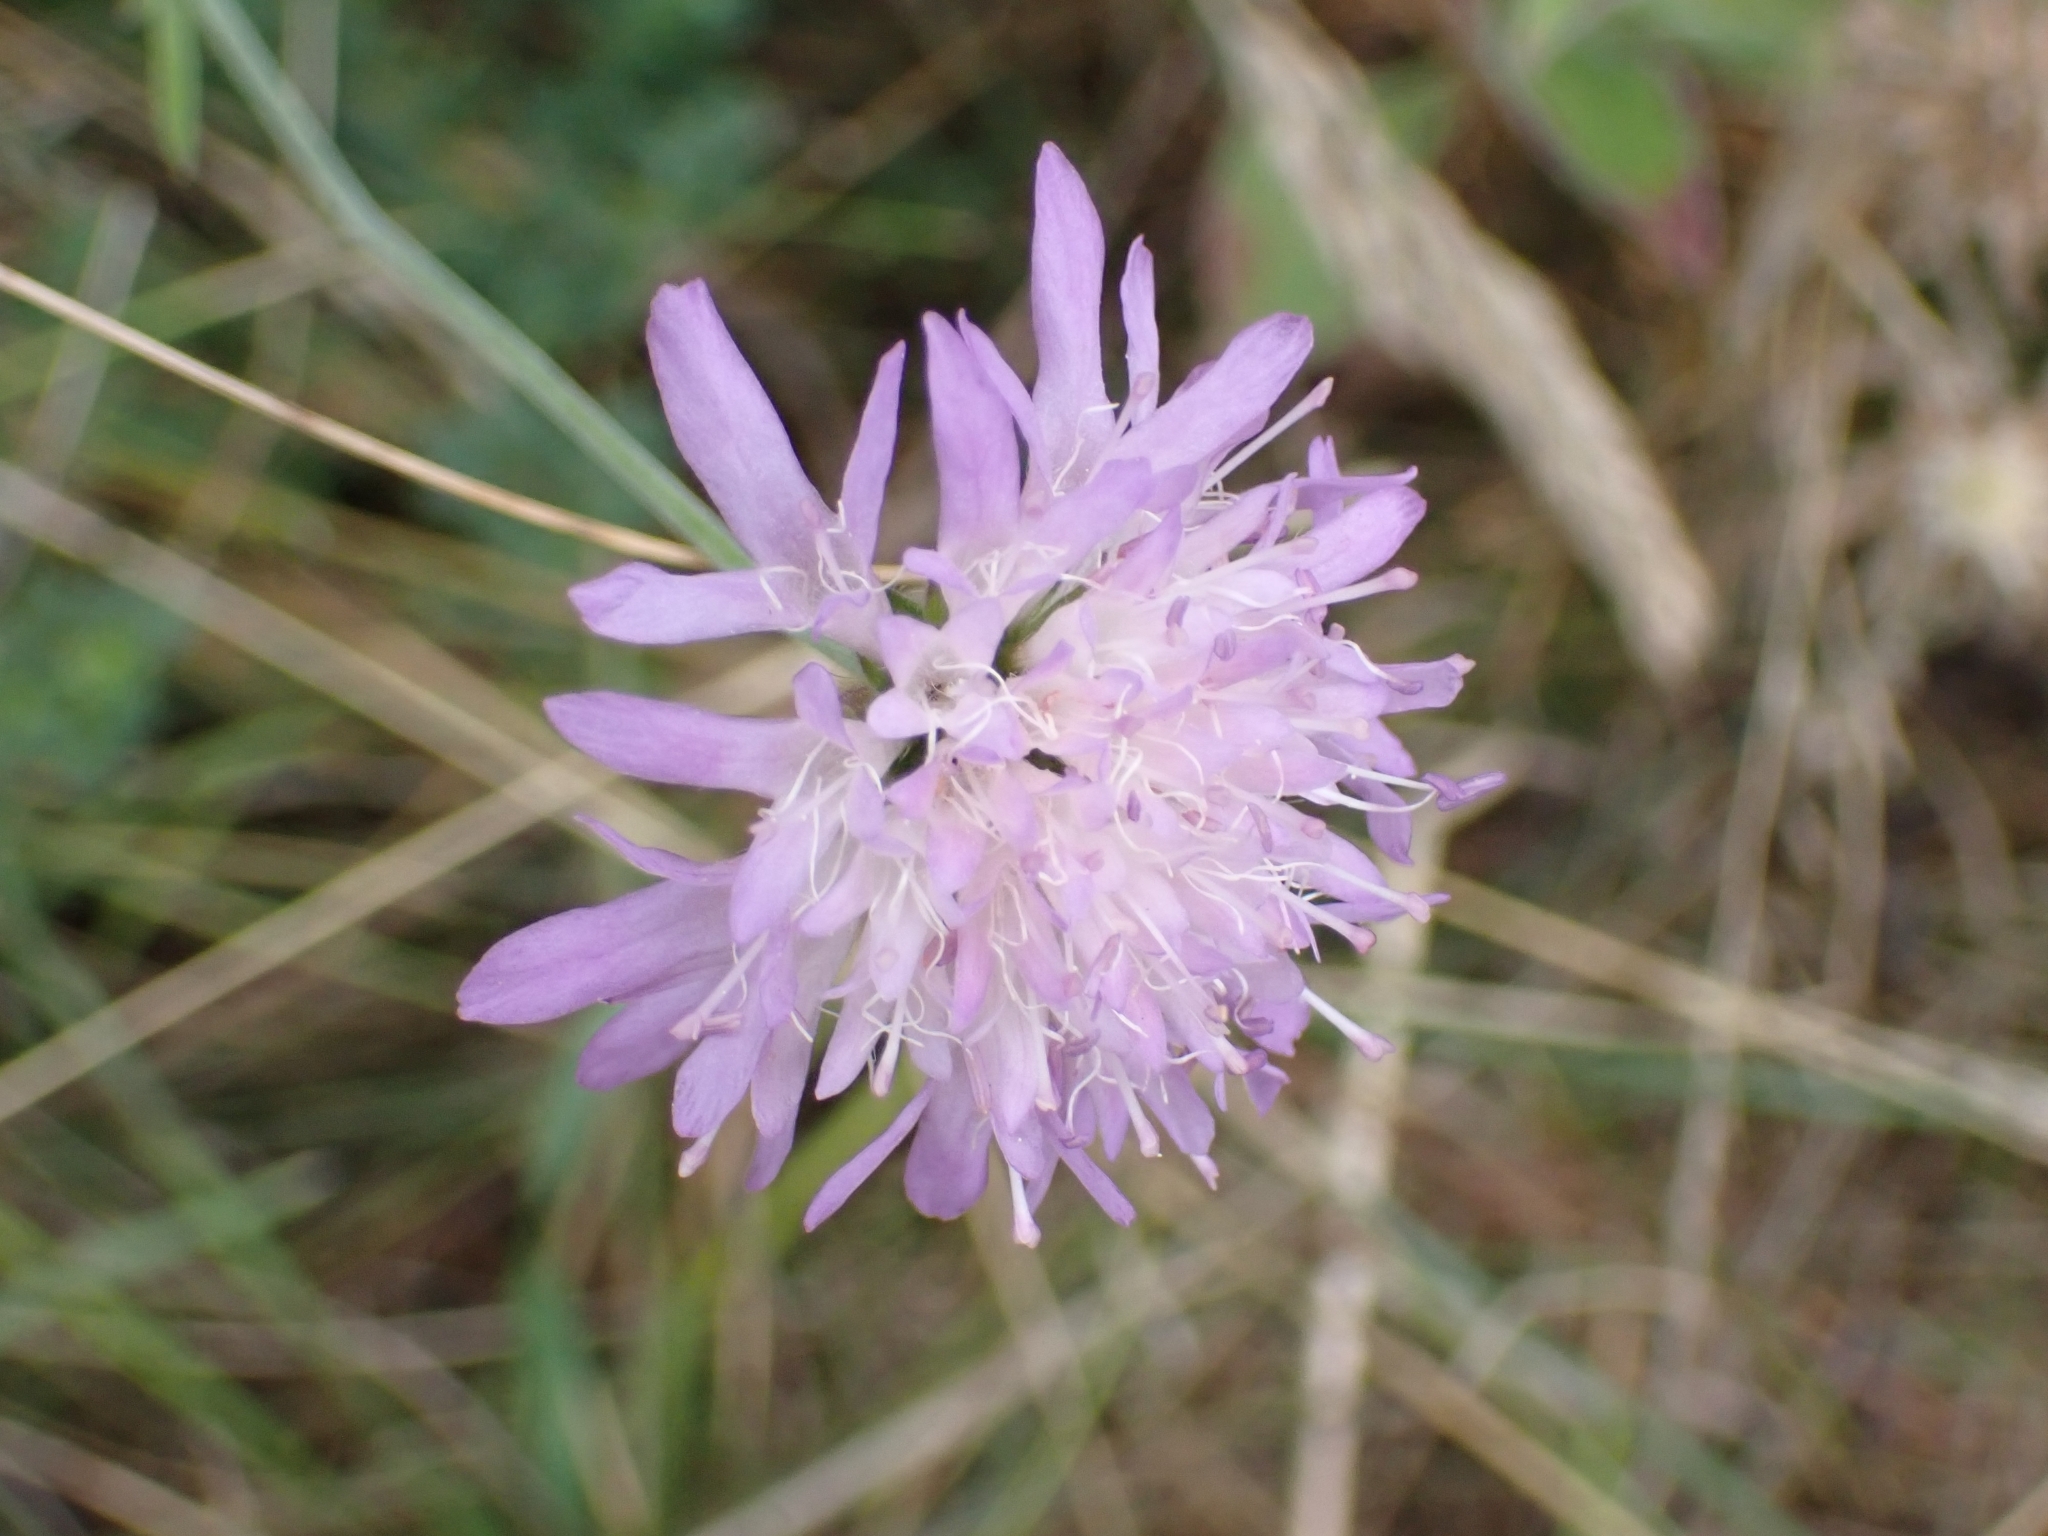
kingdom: Plantae
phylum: Tracheophyta
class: Magnoliopsida
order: Dipsacales
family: Caprifoliaceae
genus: Knautia
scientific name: Knautia arvensis
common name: Field scabiosa
